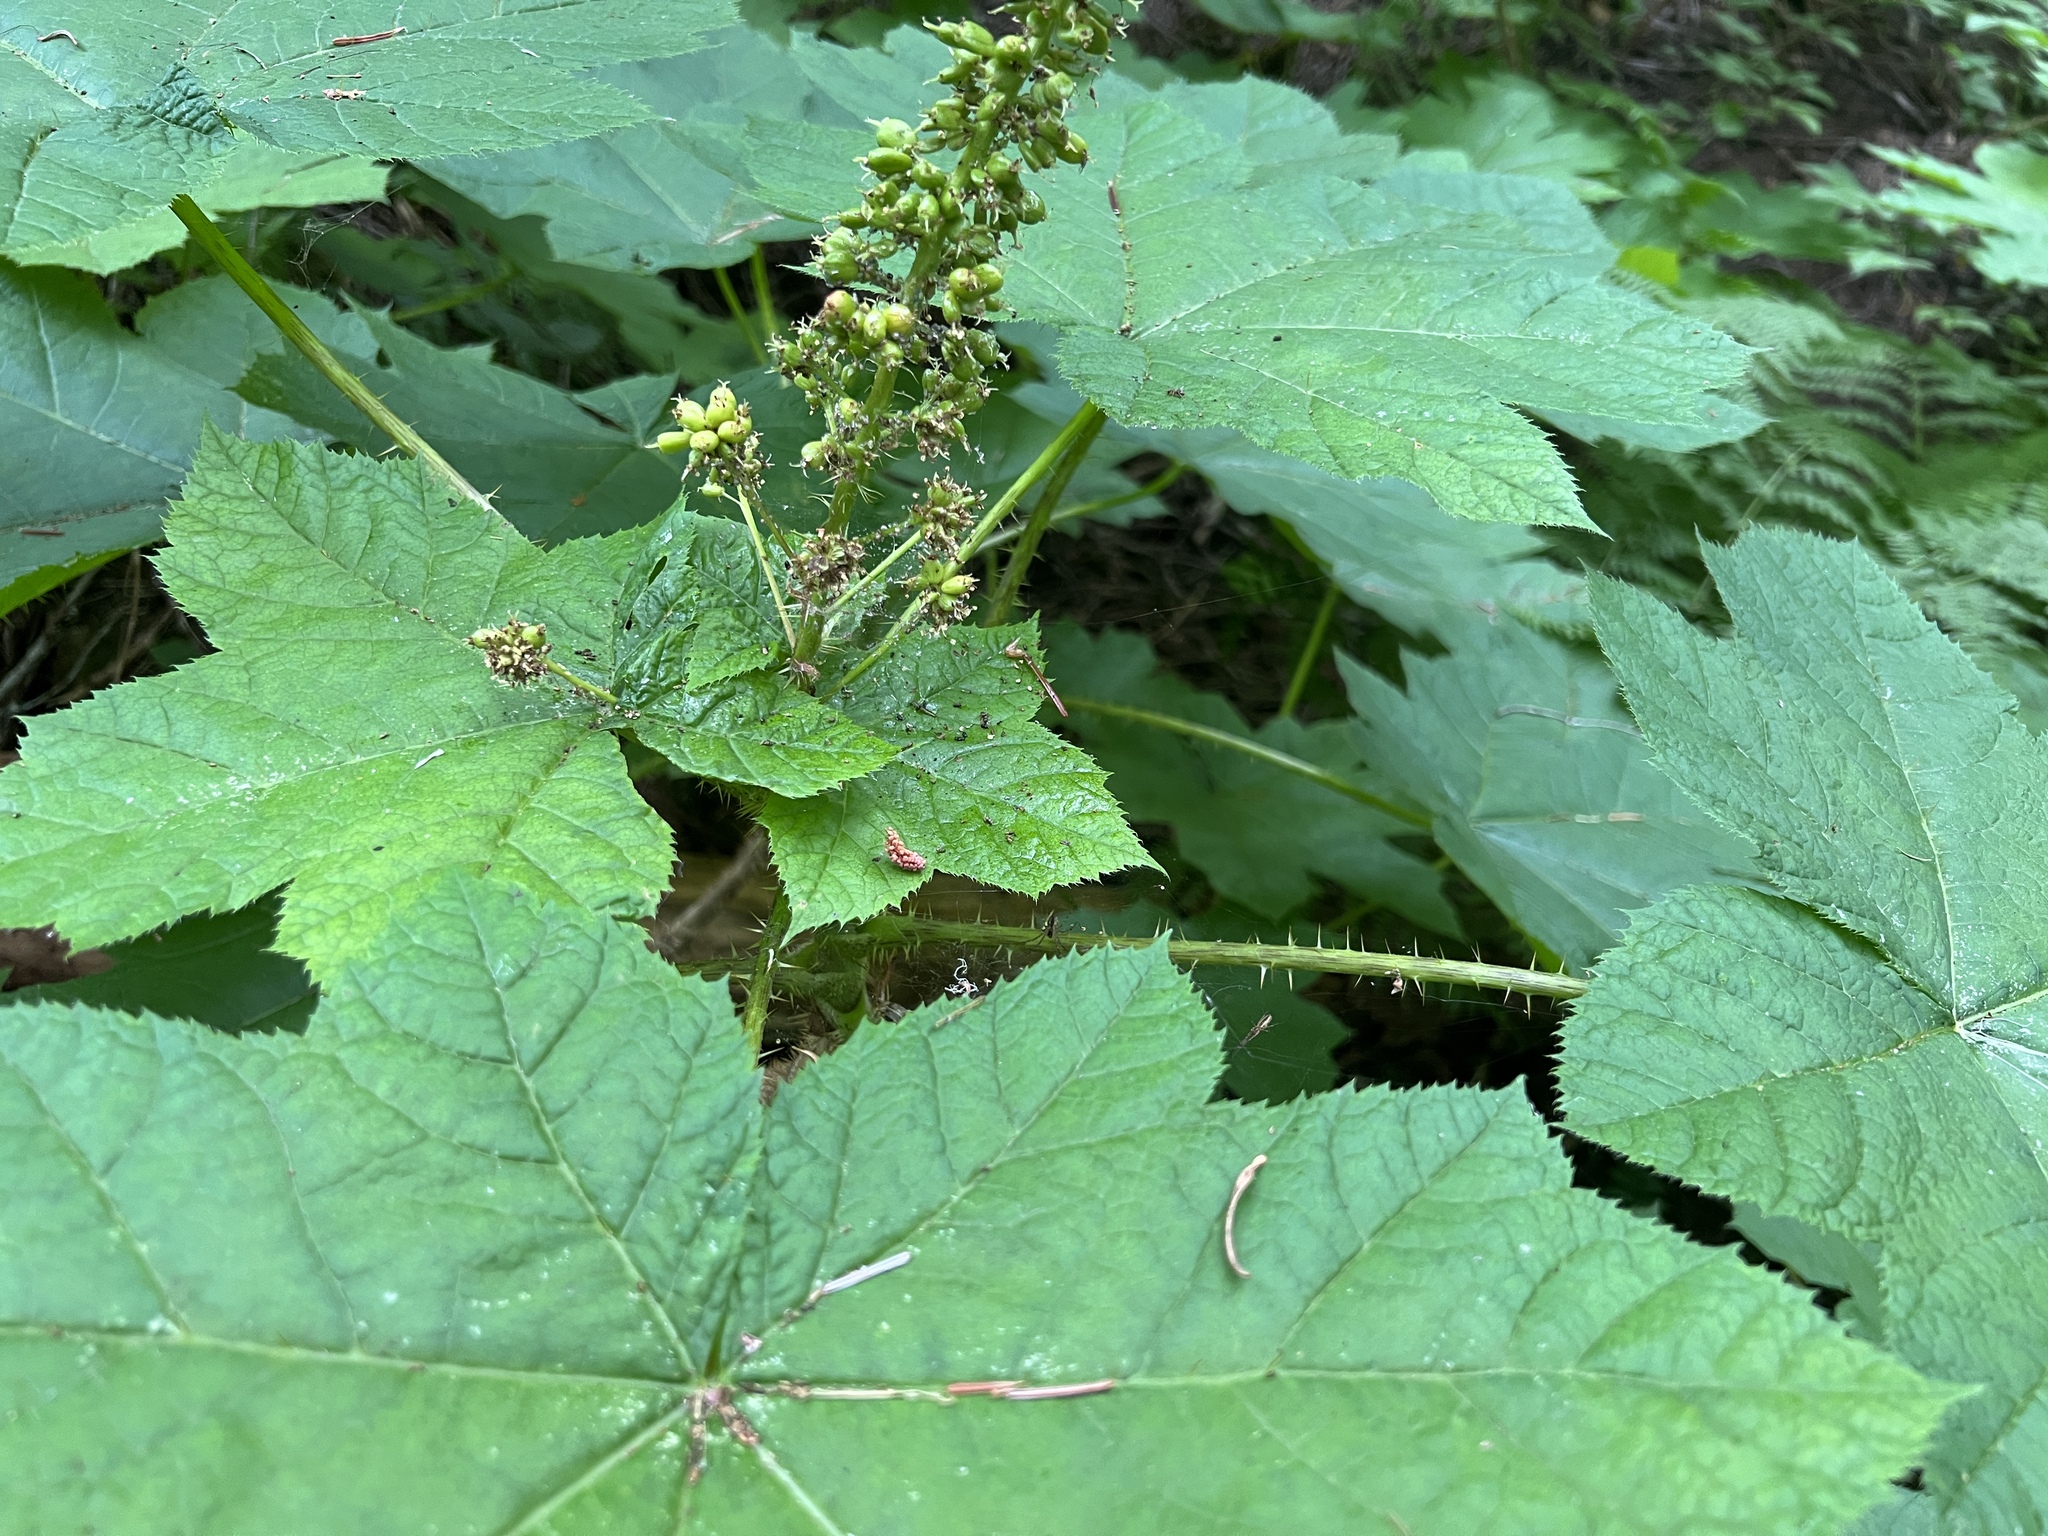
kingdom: Plantae
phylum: Tracheophyta
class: Magnoliopsida
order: Apiales
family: Araliaceae
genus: Oplopanax
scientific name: Oplopanax horridus
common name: Devil's walking-stick
